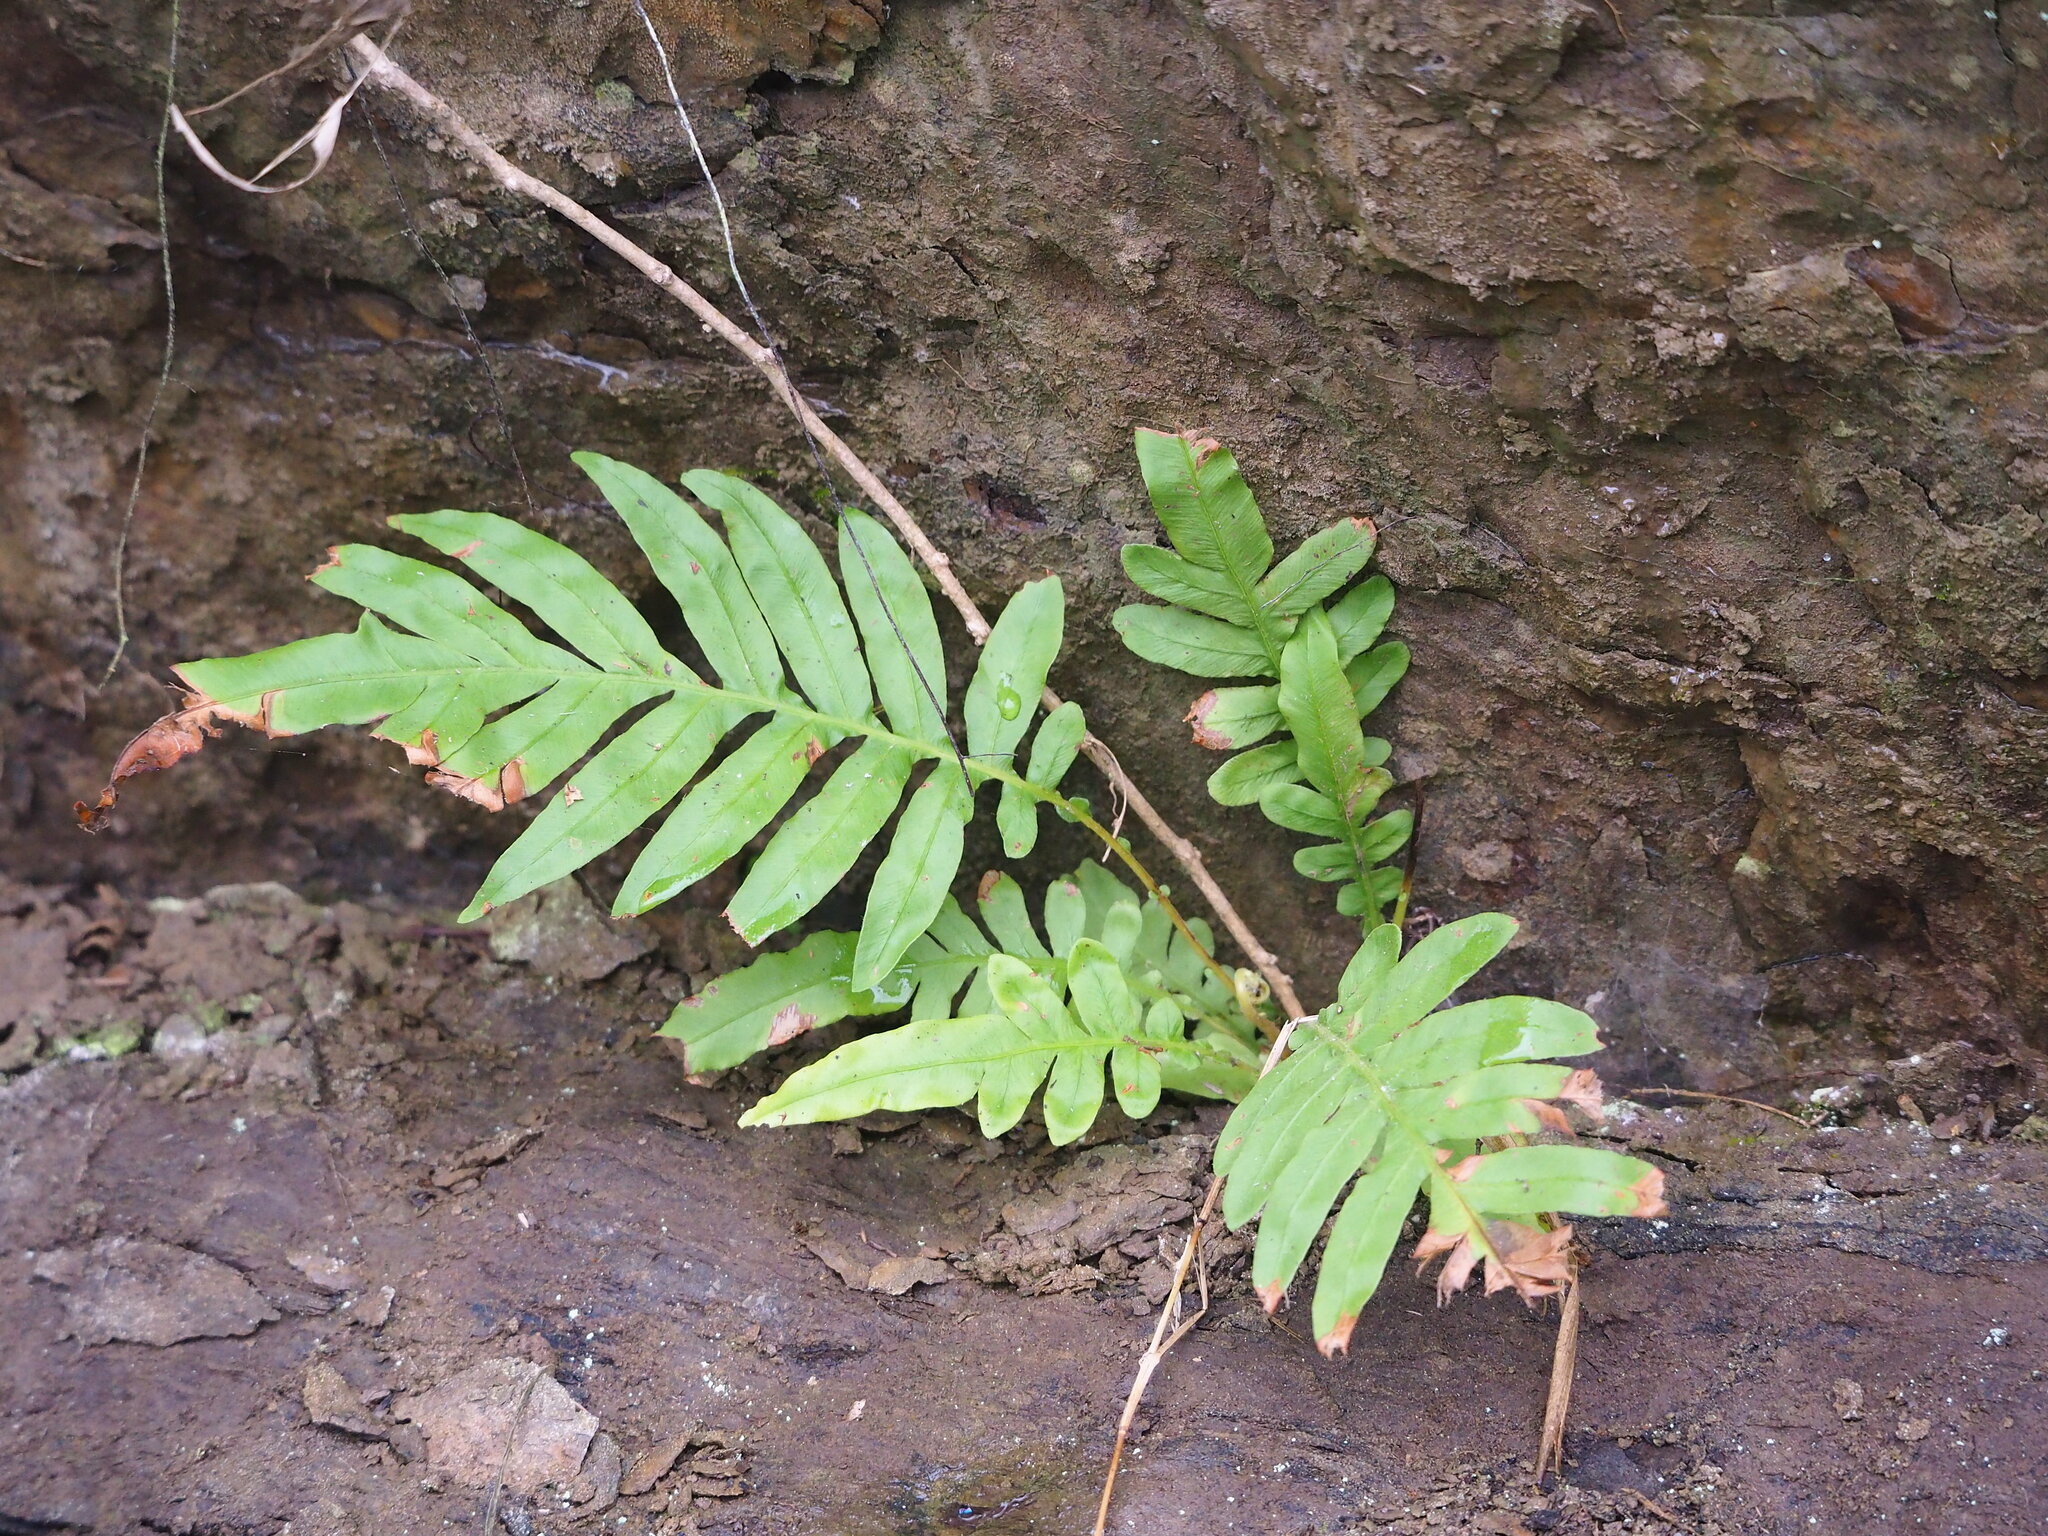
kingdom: Plantae
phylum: Tracheophyta
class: Polypodiopsida
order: Polypodiales
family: Blechnaceae
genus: Blechnopsis
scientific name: Blechnopsis orientalis
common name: Oriental blechnum
